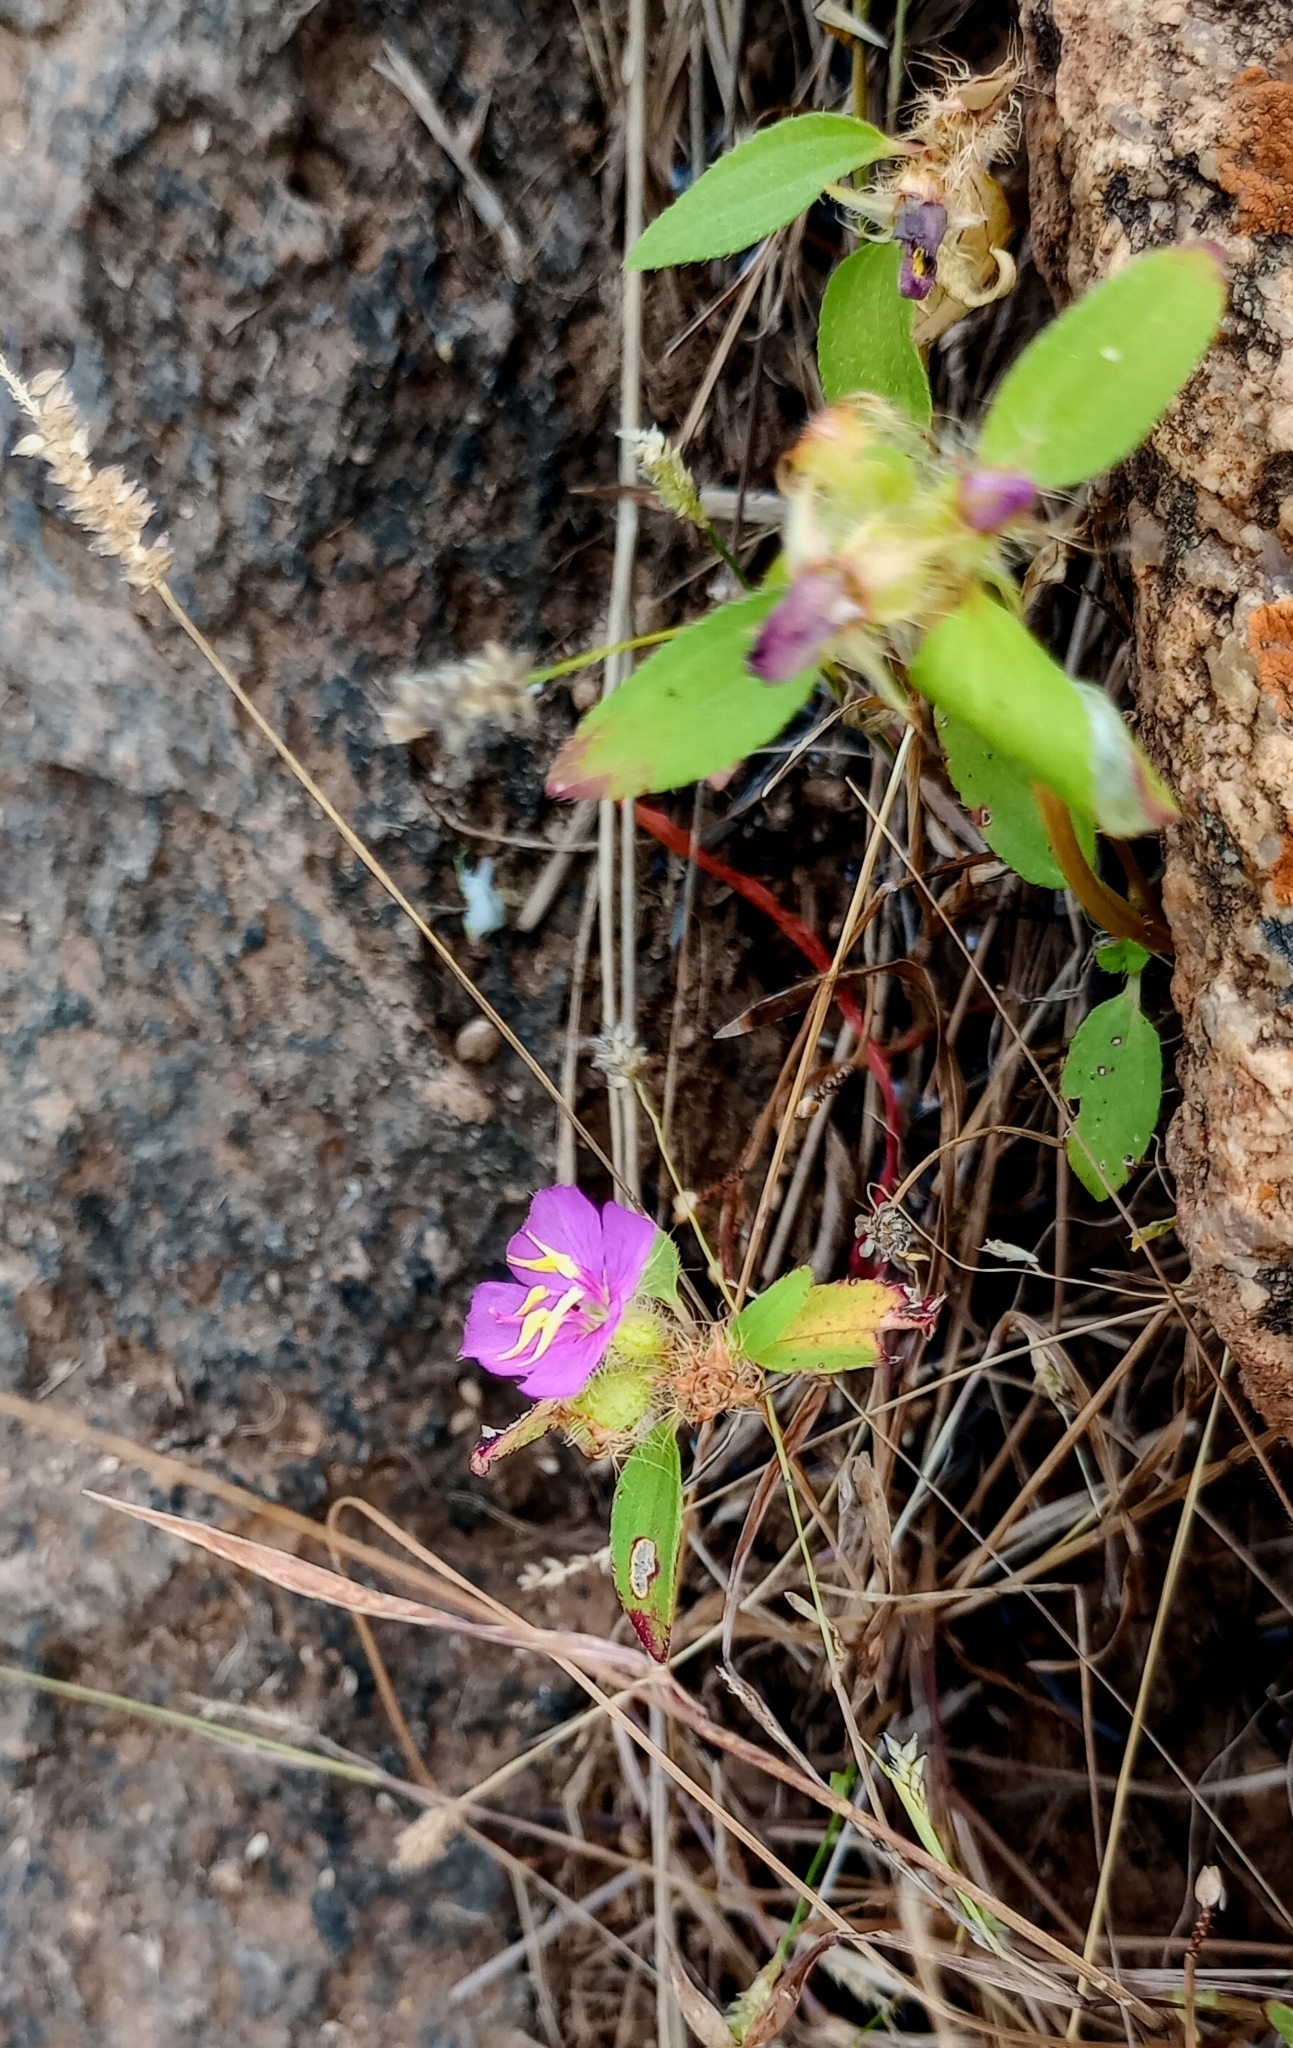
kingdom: Plantae
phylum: Tracheophyta
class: Magnoliopsida
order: Myrtales
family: Melastomataceae
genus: Osbeckia
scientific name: Osbeckia zeylanica
